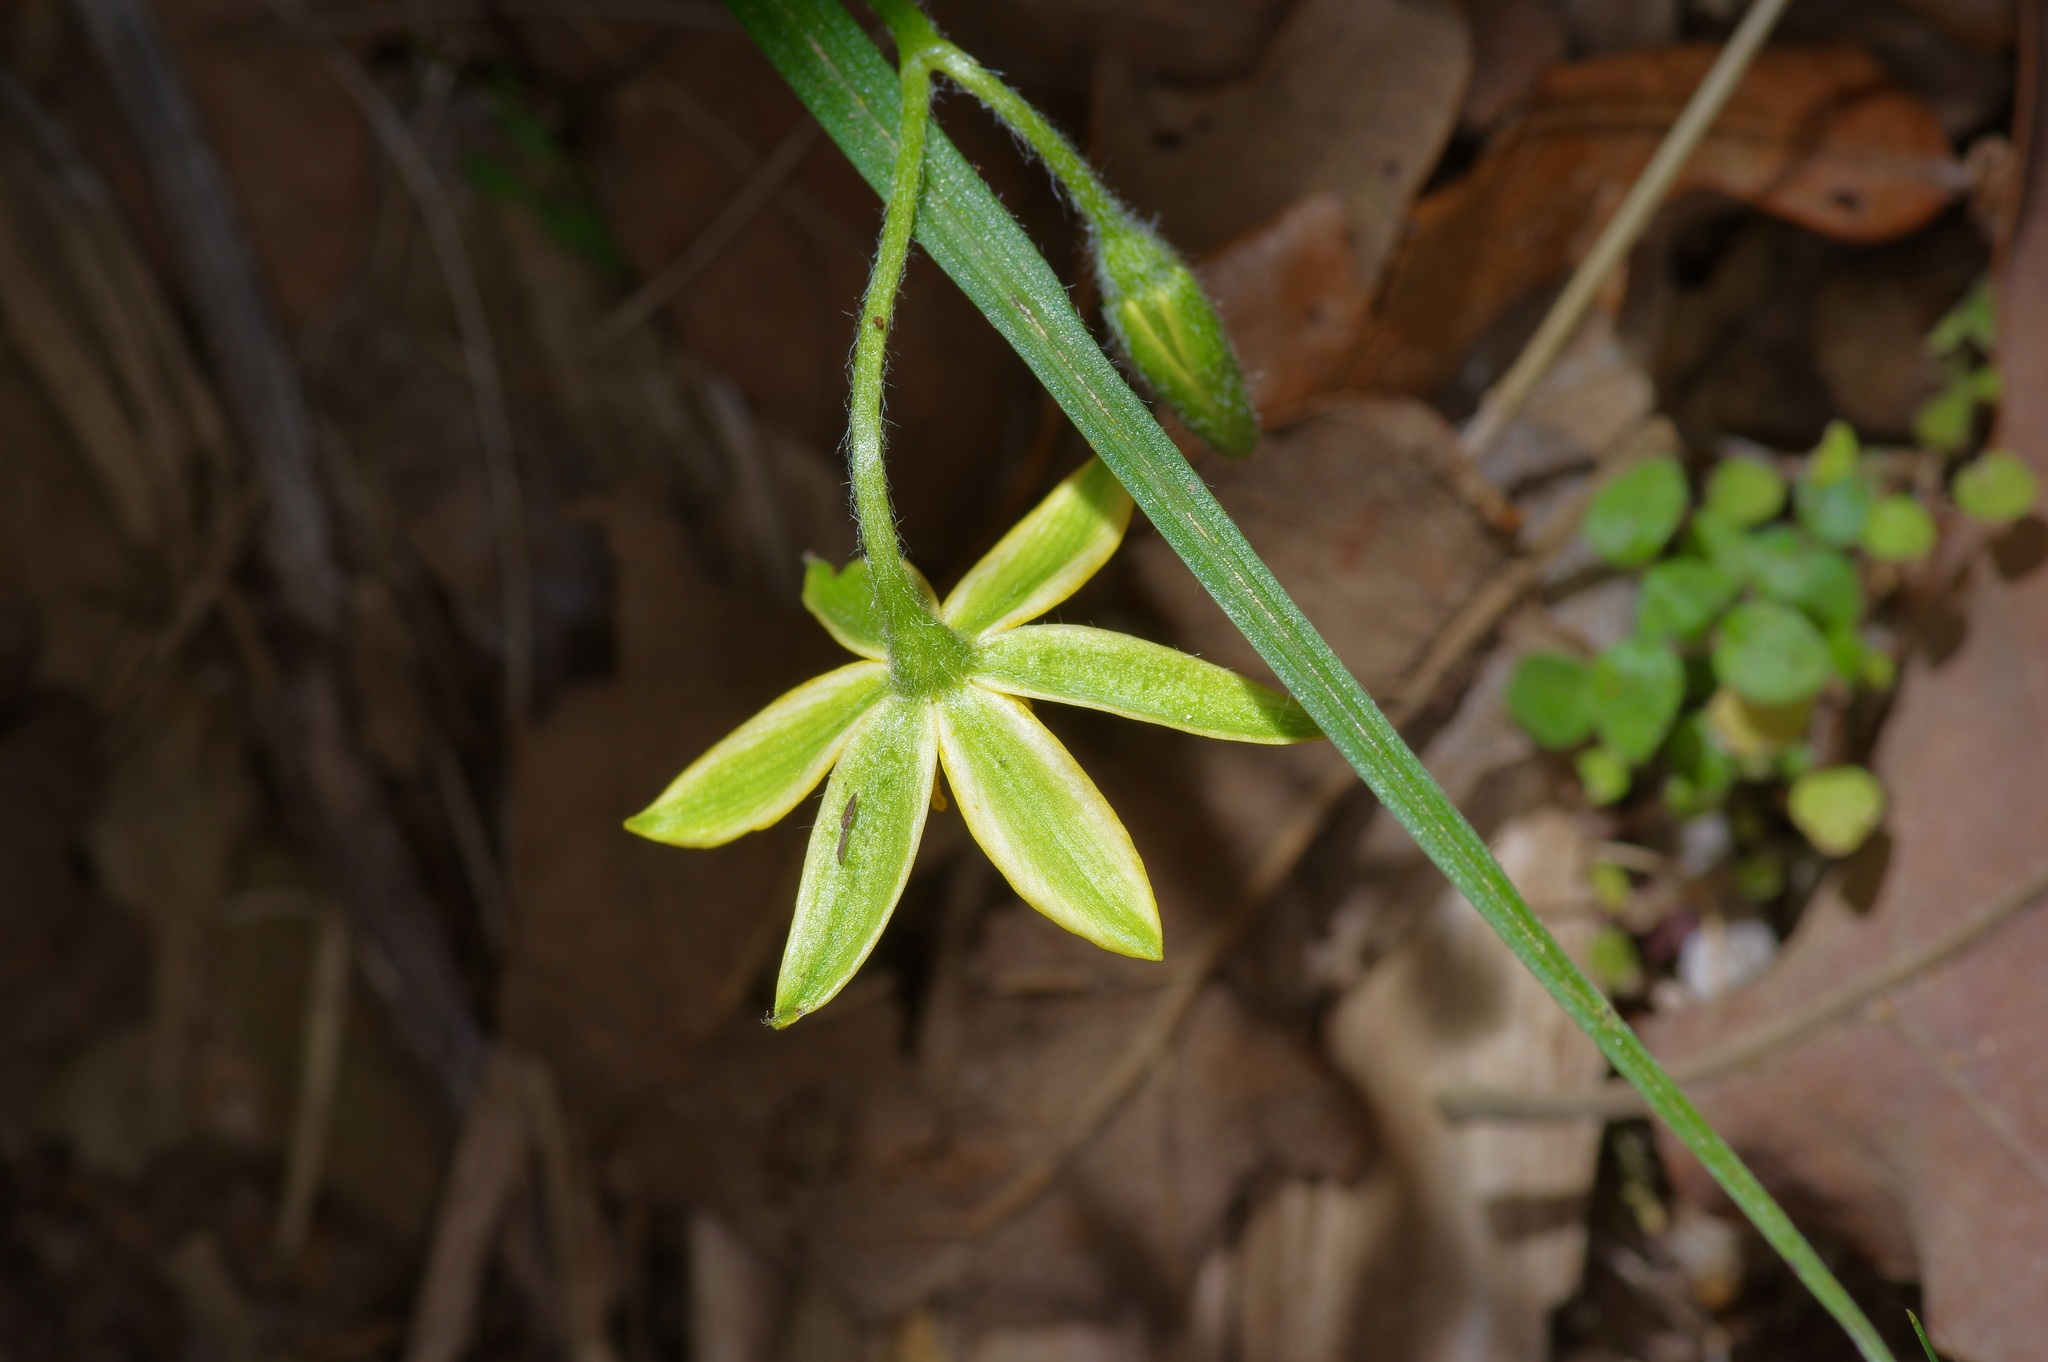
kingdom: Plantae
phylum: Tracheophyta
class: Liliopsida
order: Asparagales
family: Hypoxidaceae
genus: Hypoxis
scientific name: Hypoxis hirsuta
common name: Common goldstar
